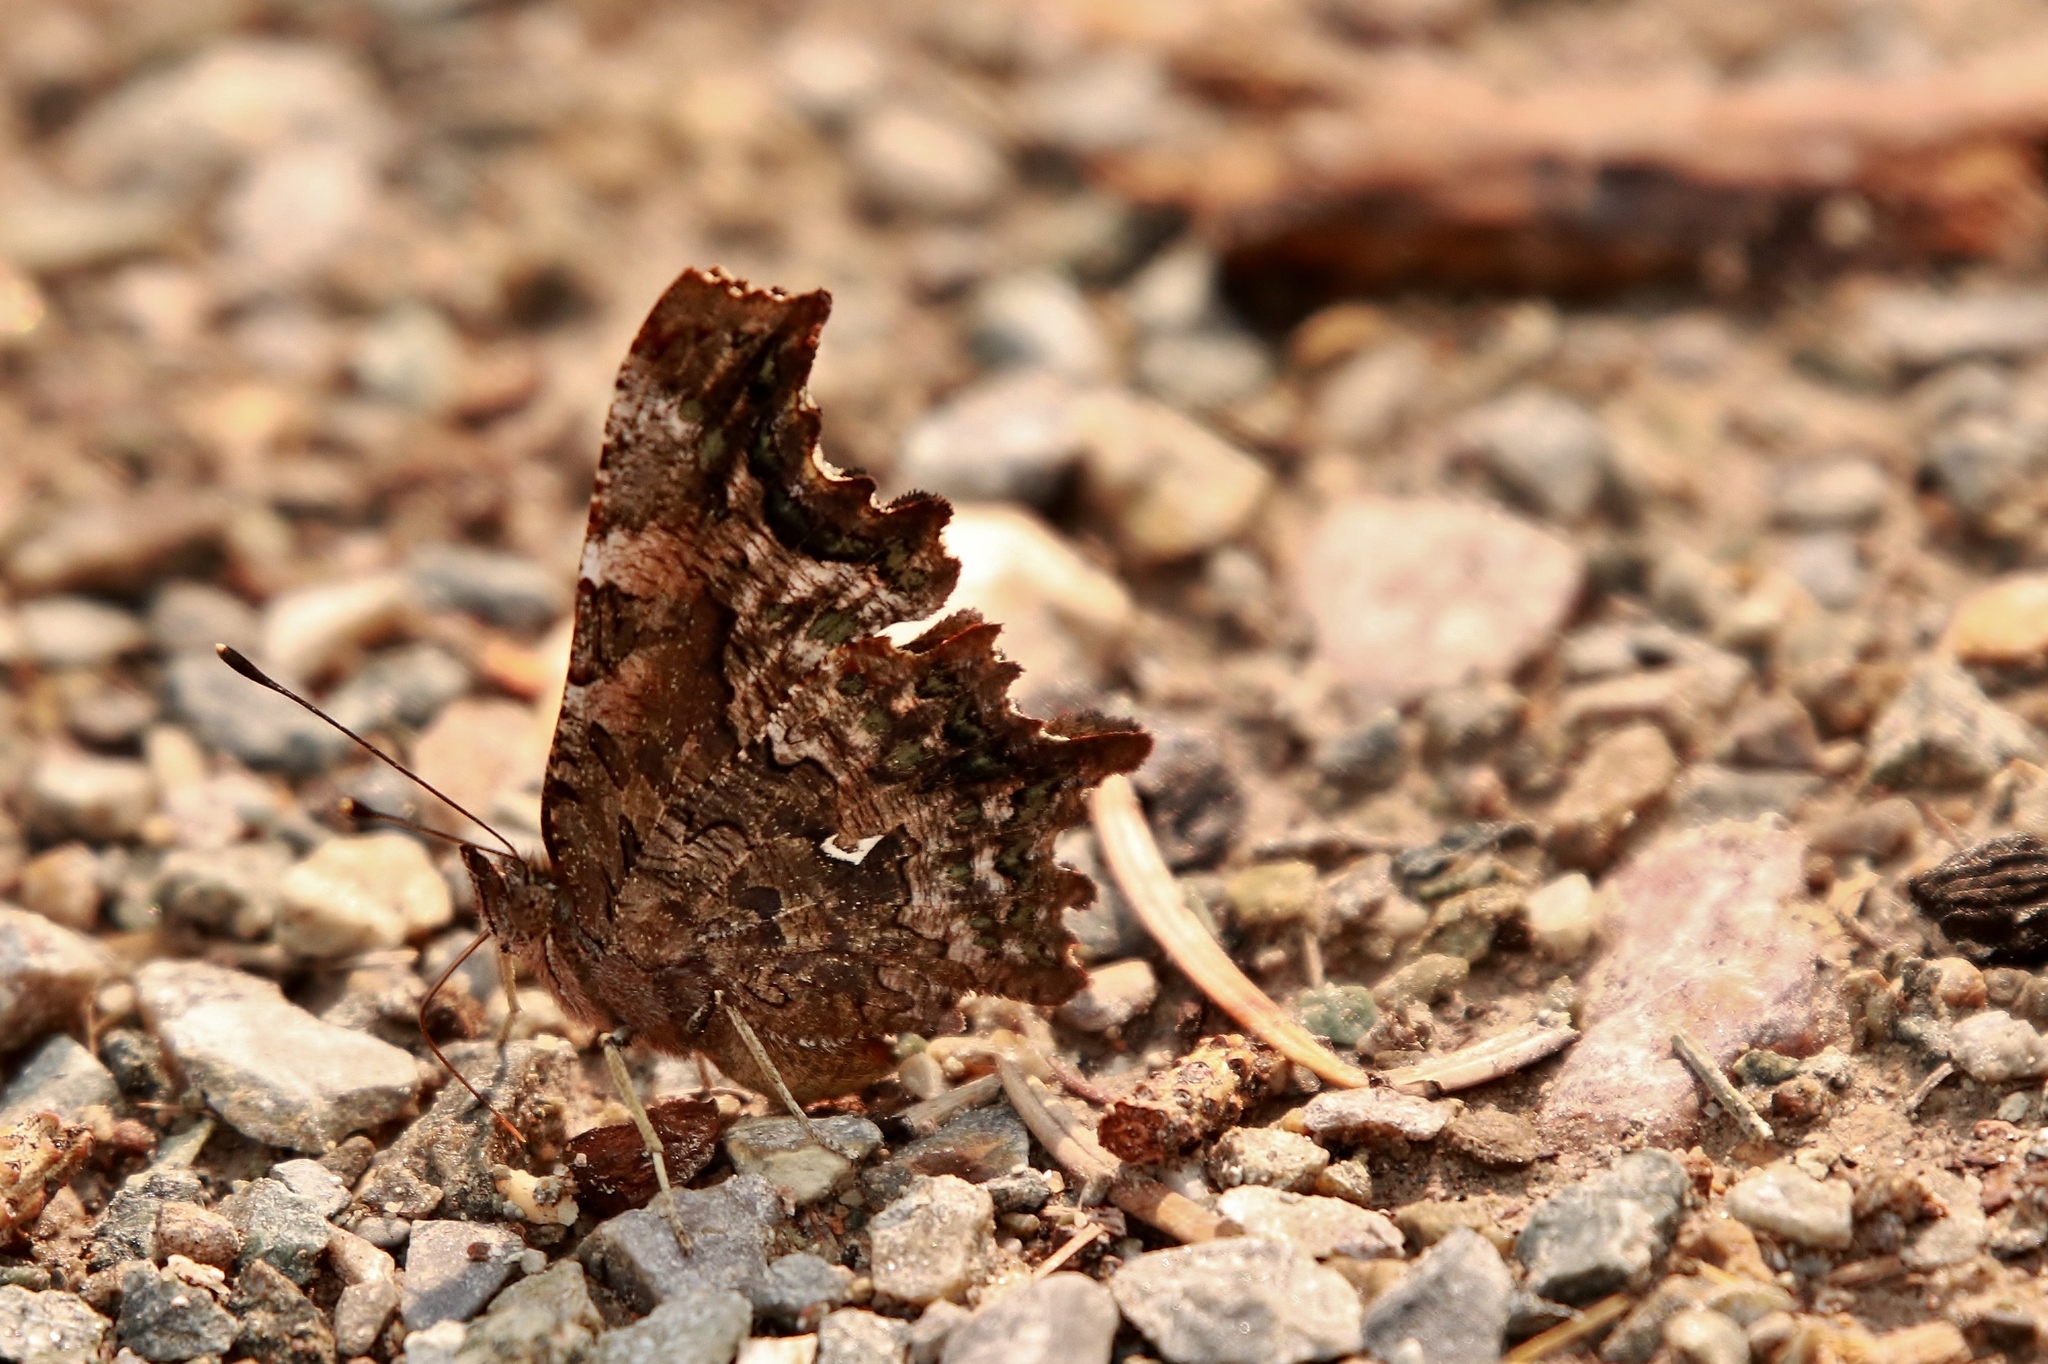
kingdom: Animalia
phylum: Arthropoda
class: Insecta
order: Lepidoptera
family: Nymphalidae
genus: Polygonia
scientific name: Polygonia faunus
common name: Green comma
